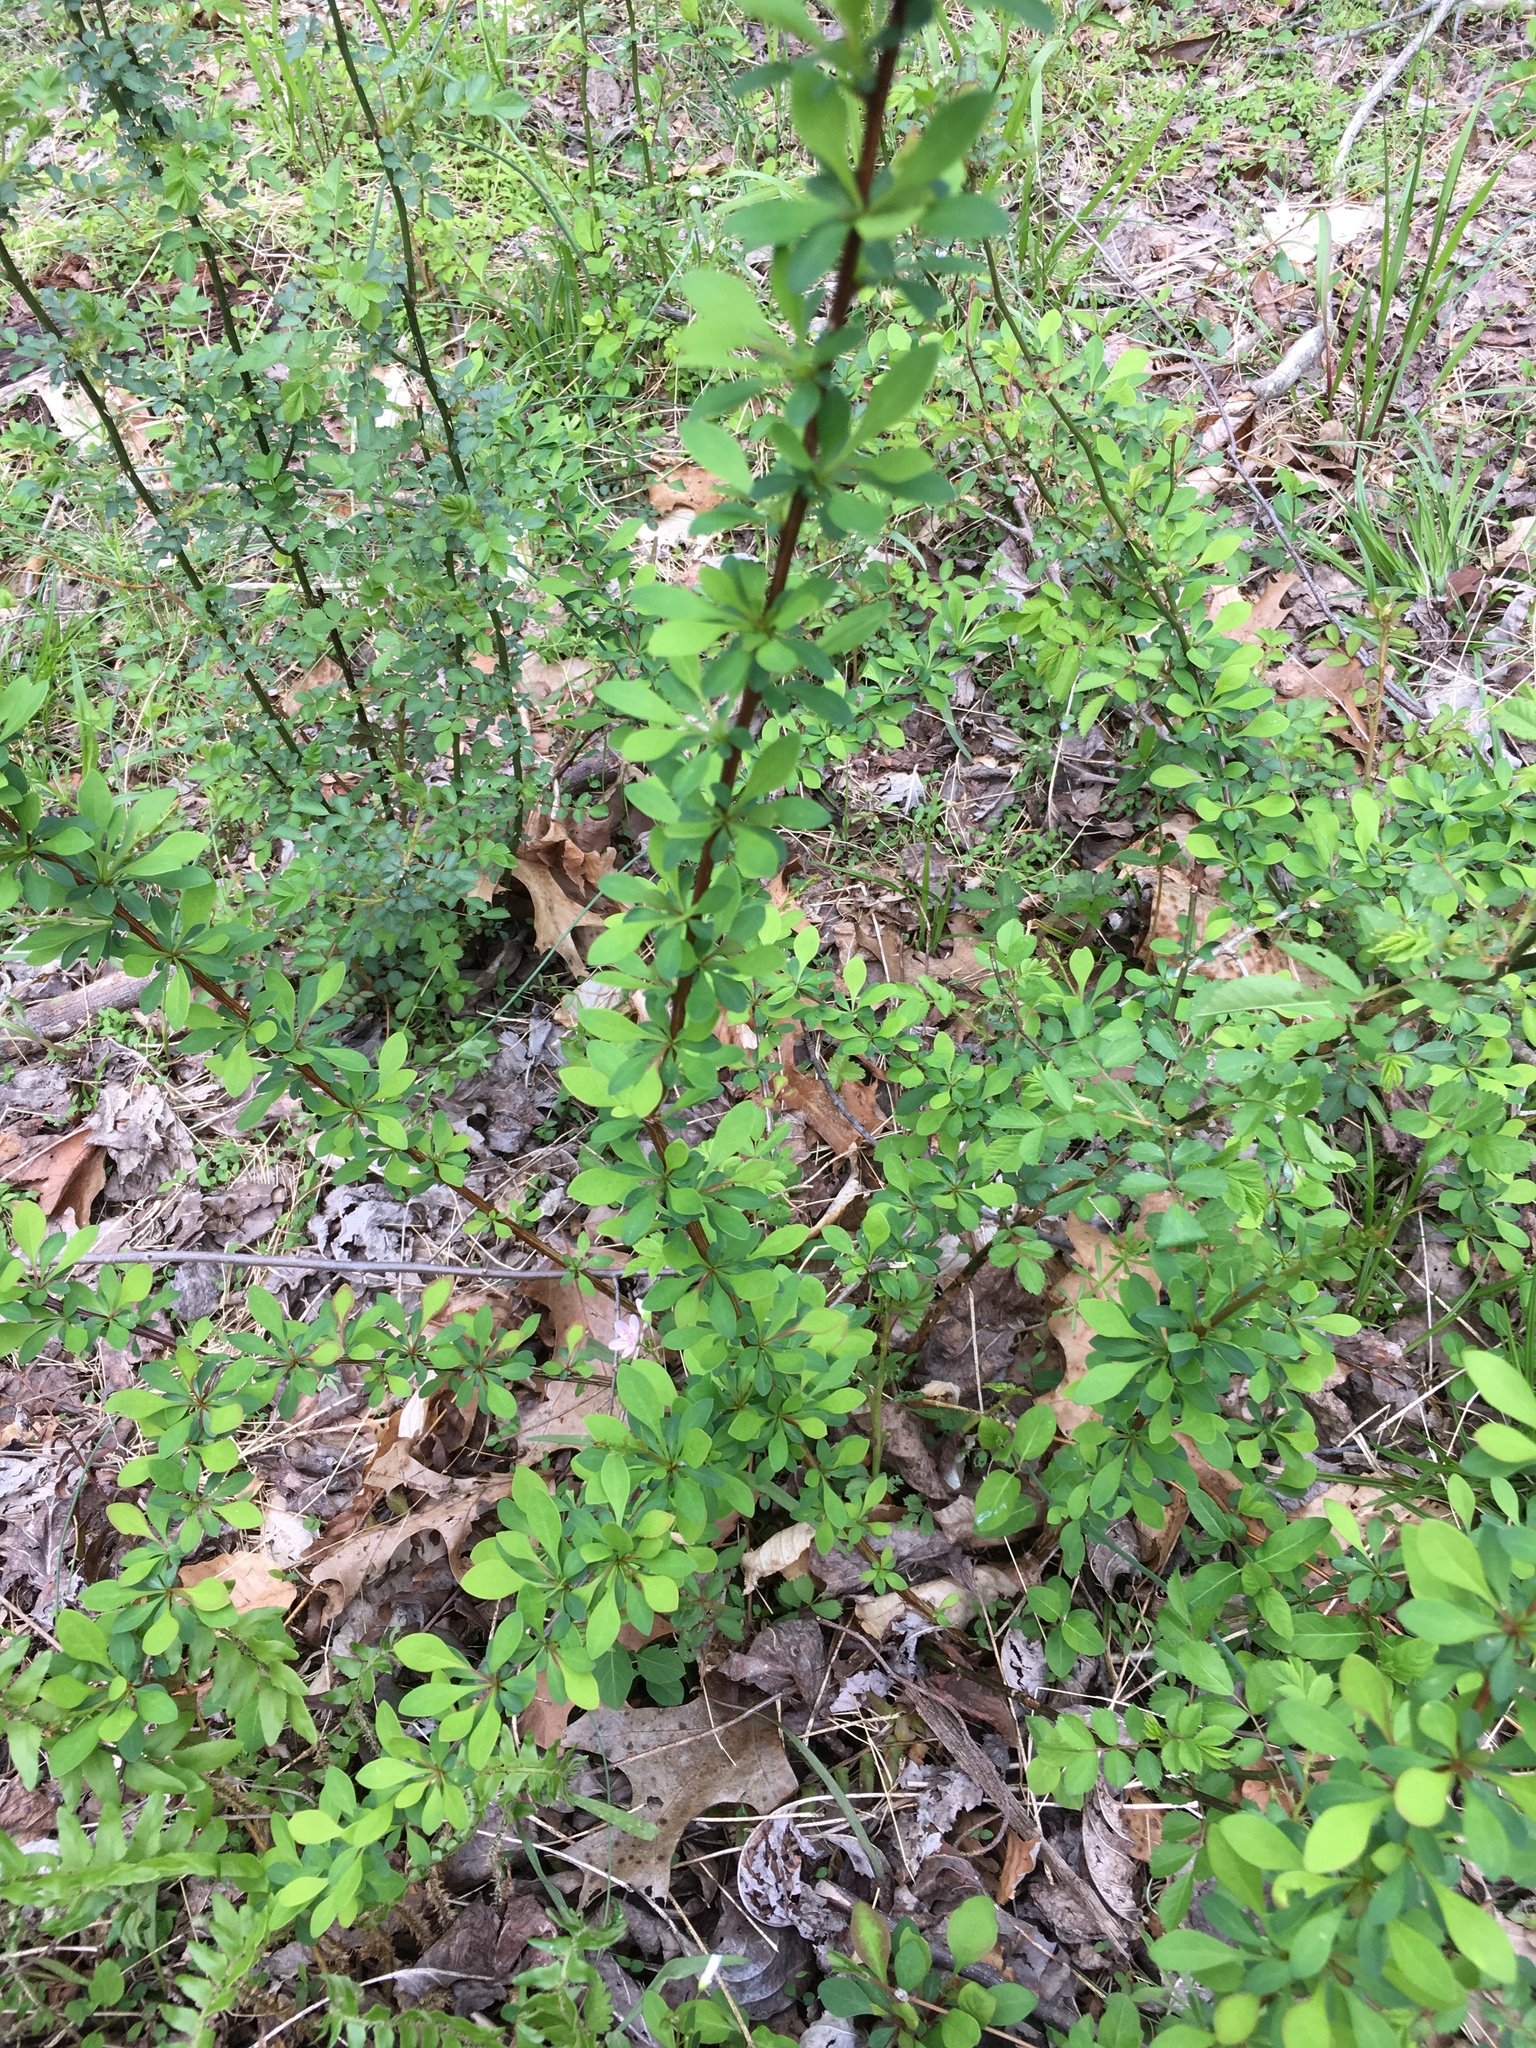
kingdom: Plantae
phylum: Tracheophyta
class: Magnoliopsida
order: Ranunculales
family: Berberidaceae
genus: Berberis
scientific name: Berberis thunbergii
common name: Japanese barberry
